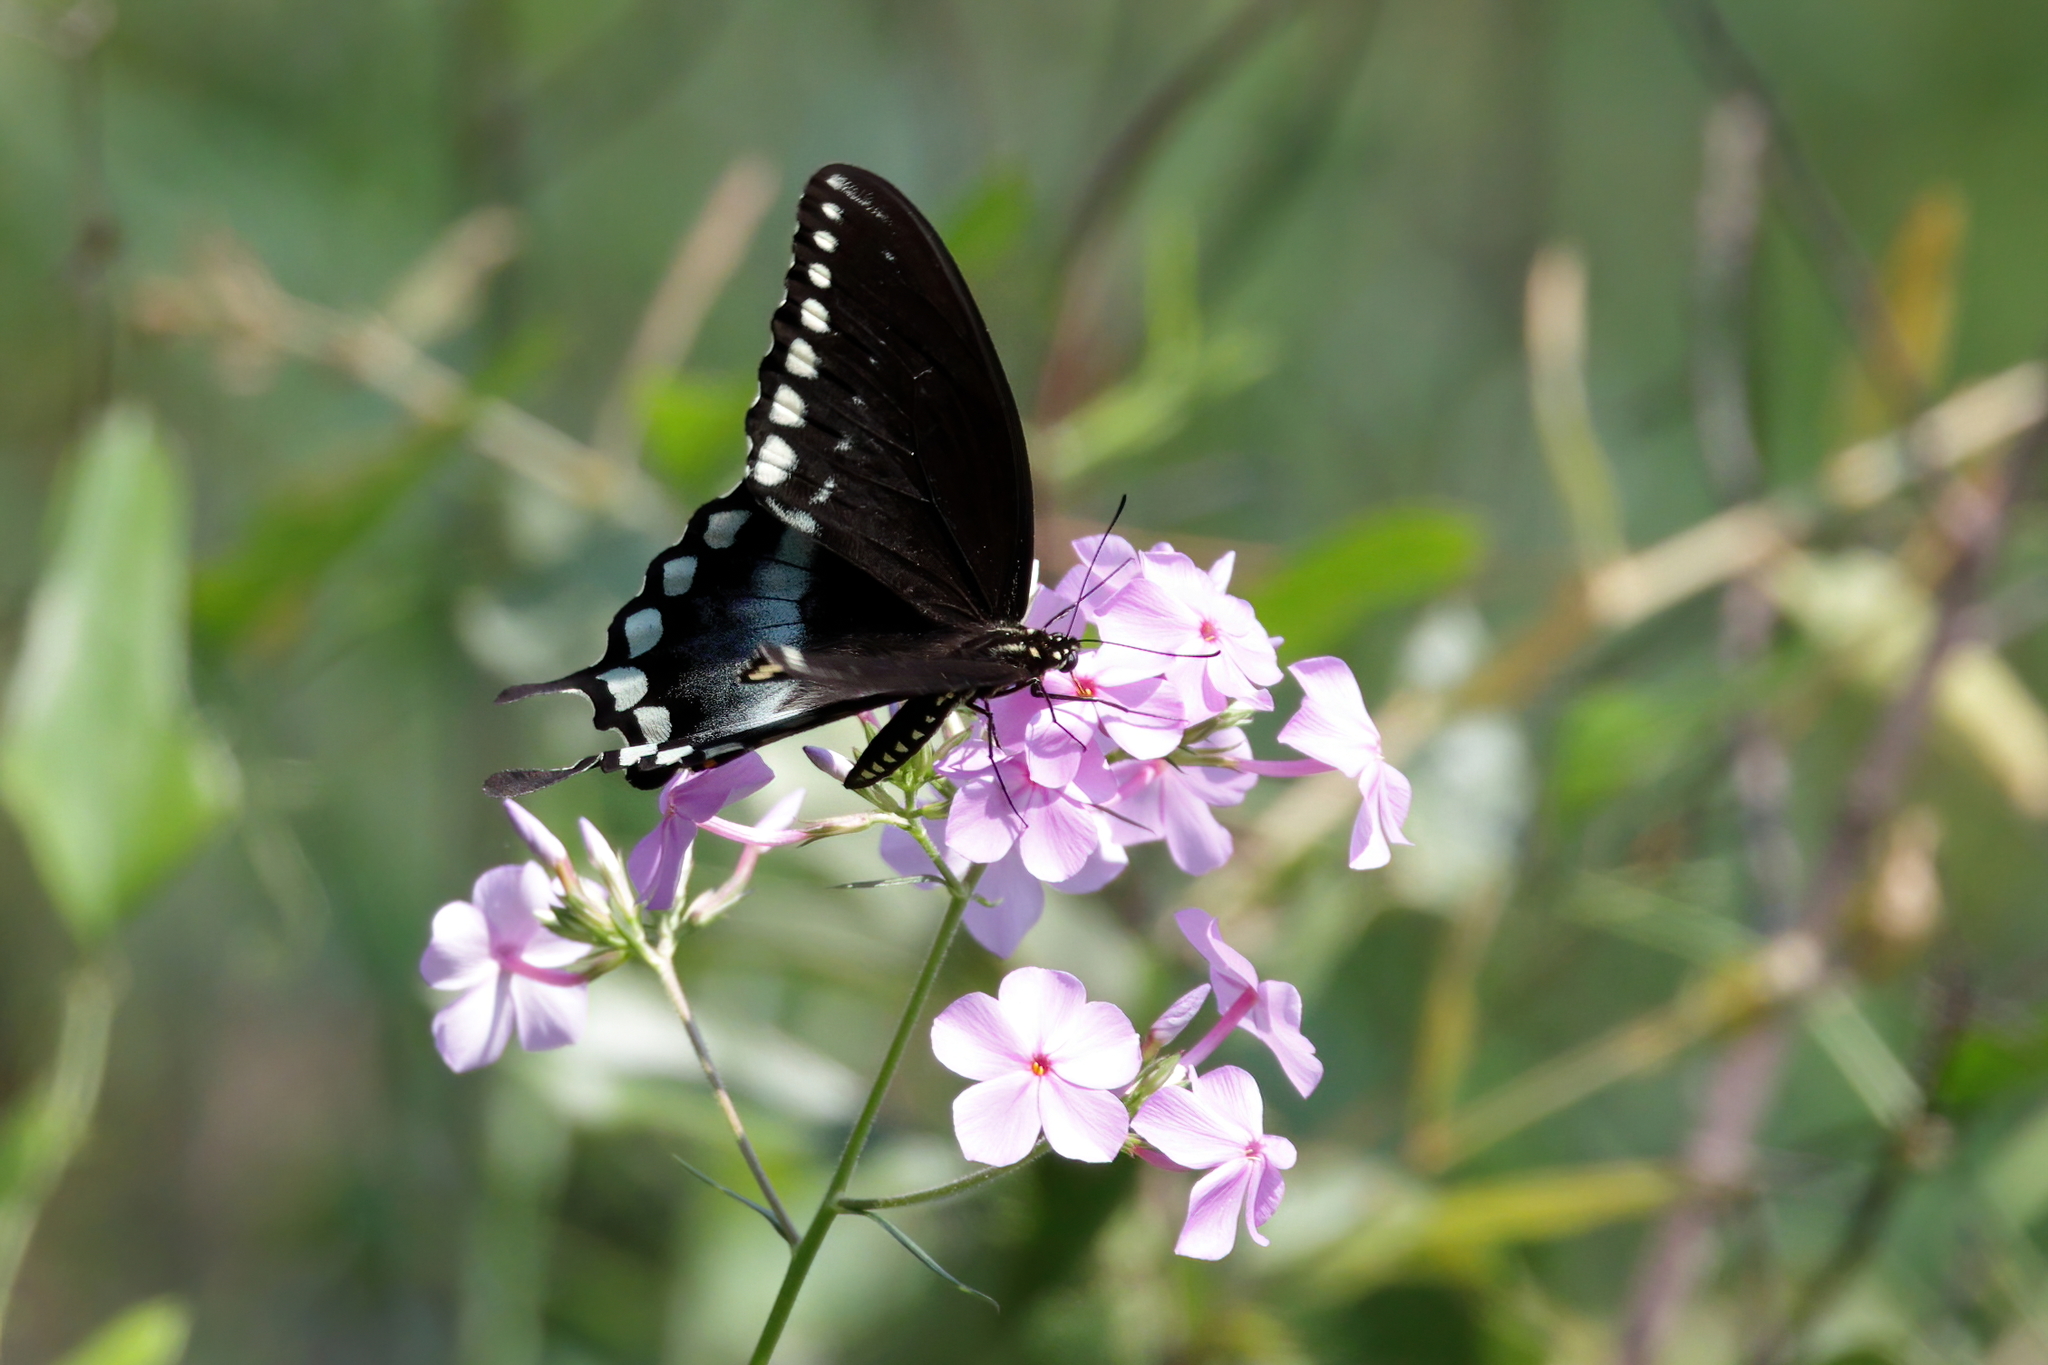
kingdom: Animalia
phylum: Arthropoda
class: Insecta
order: Lepidoptera
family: Papilionidae
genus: Papilio
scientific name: Papilio troilus
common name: Spicebush swallowtail
